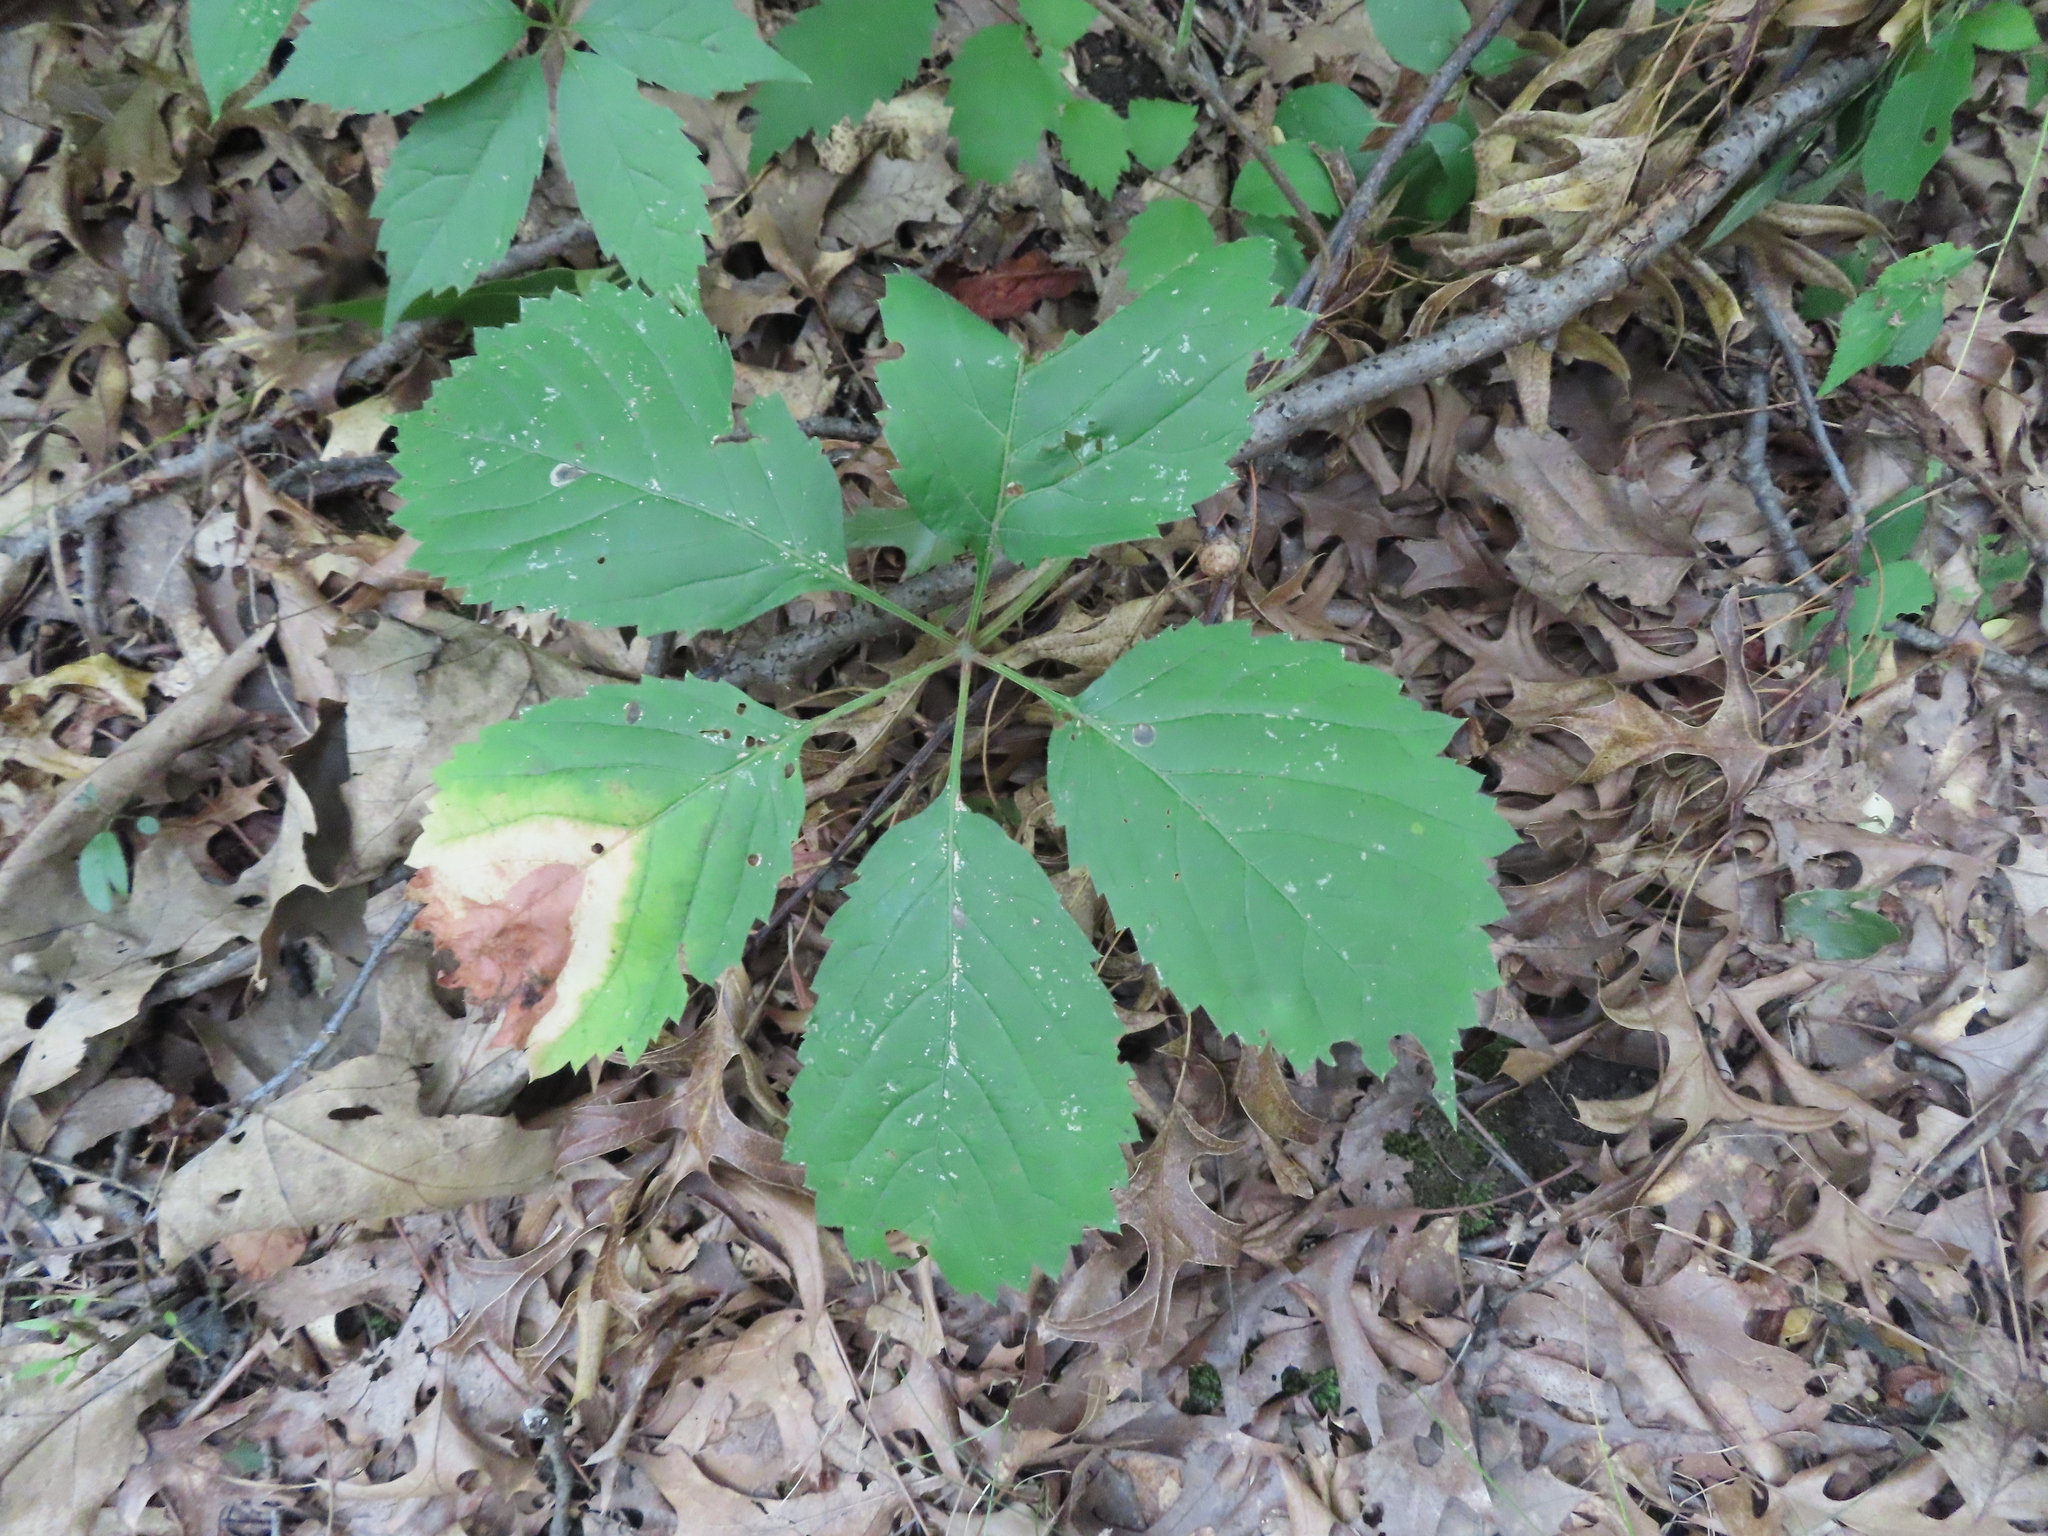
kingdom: Plantae
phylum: Tracheophyta
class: Magnoliopsida
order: Vitales
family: Vitaceae
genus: Parthenocissus
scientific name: Parthenocissus inserta
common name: False virginia-creeper
